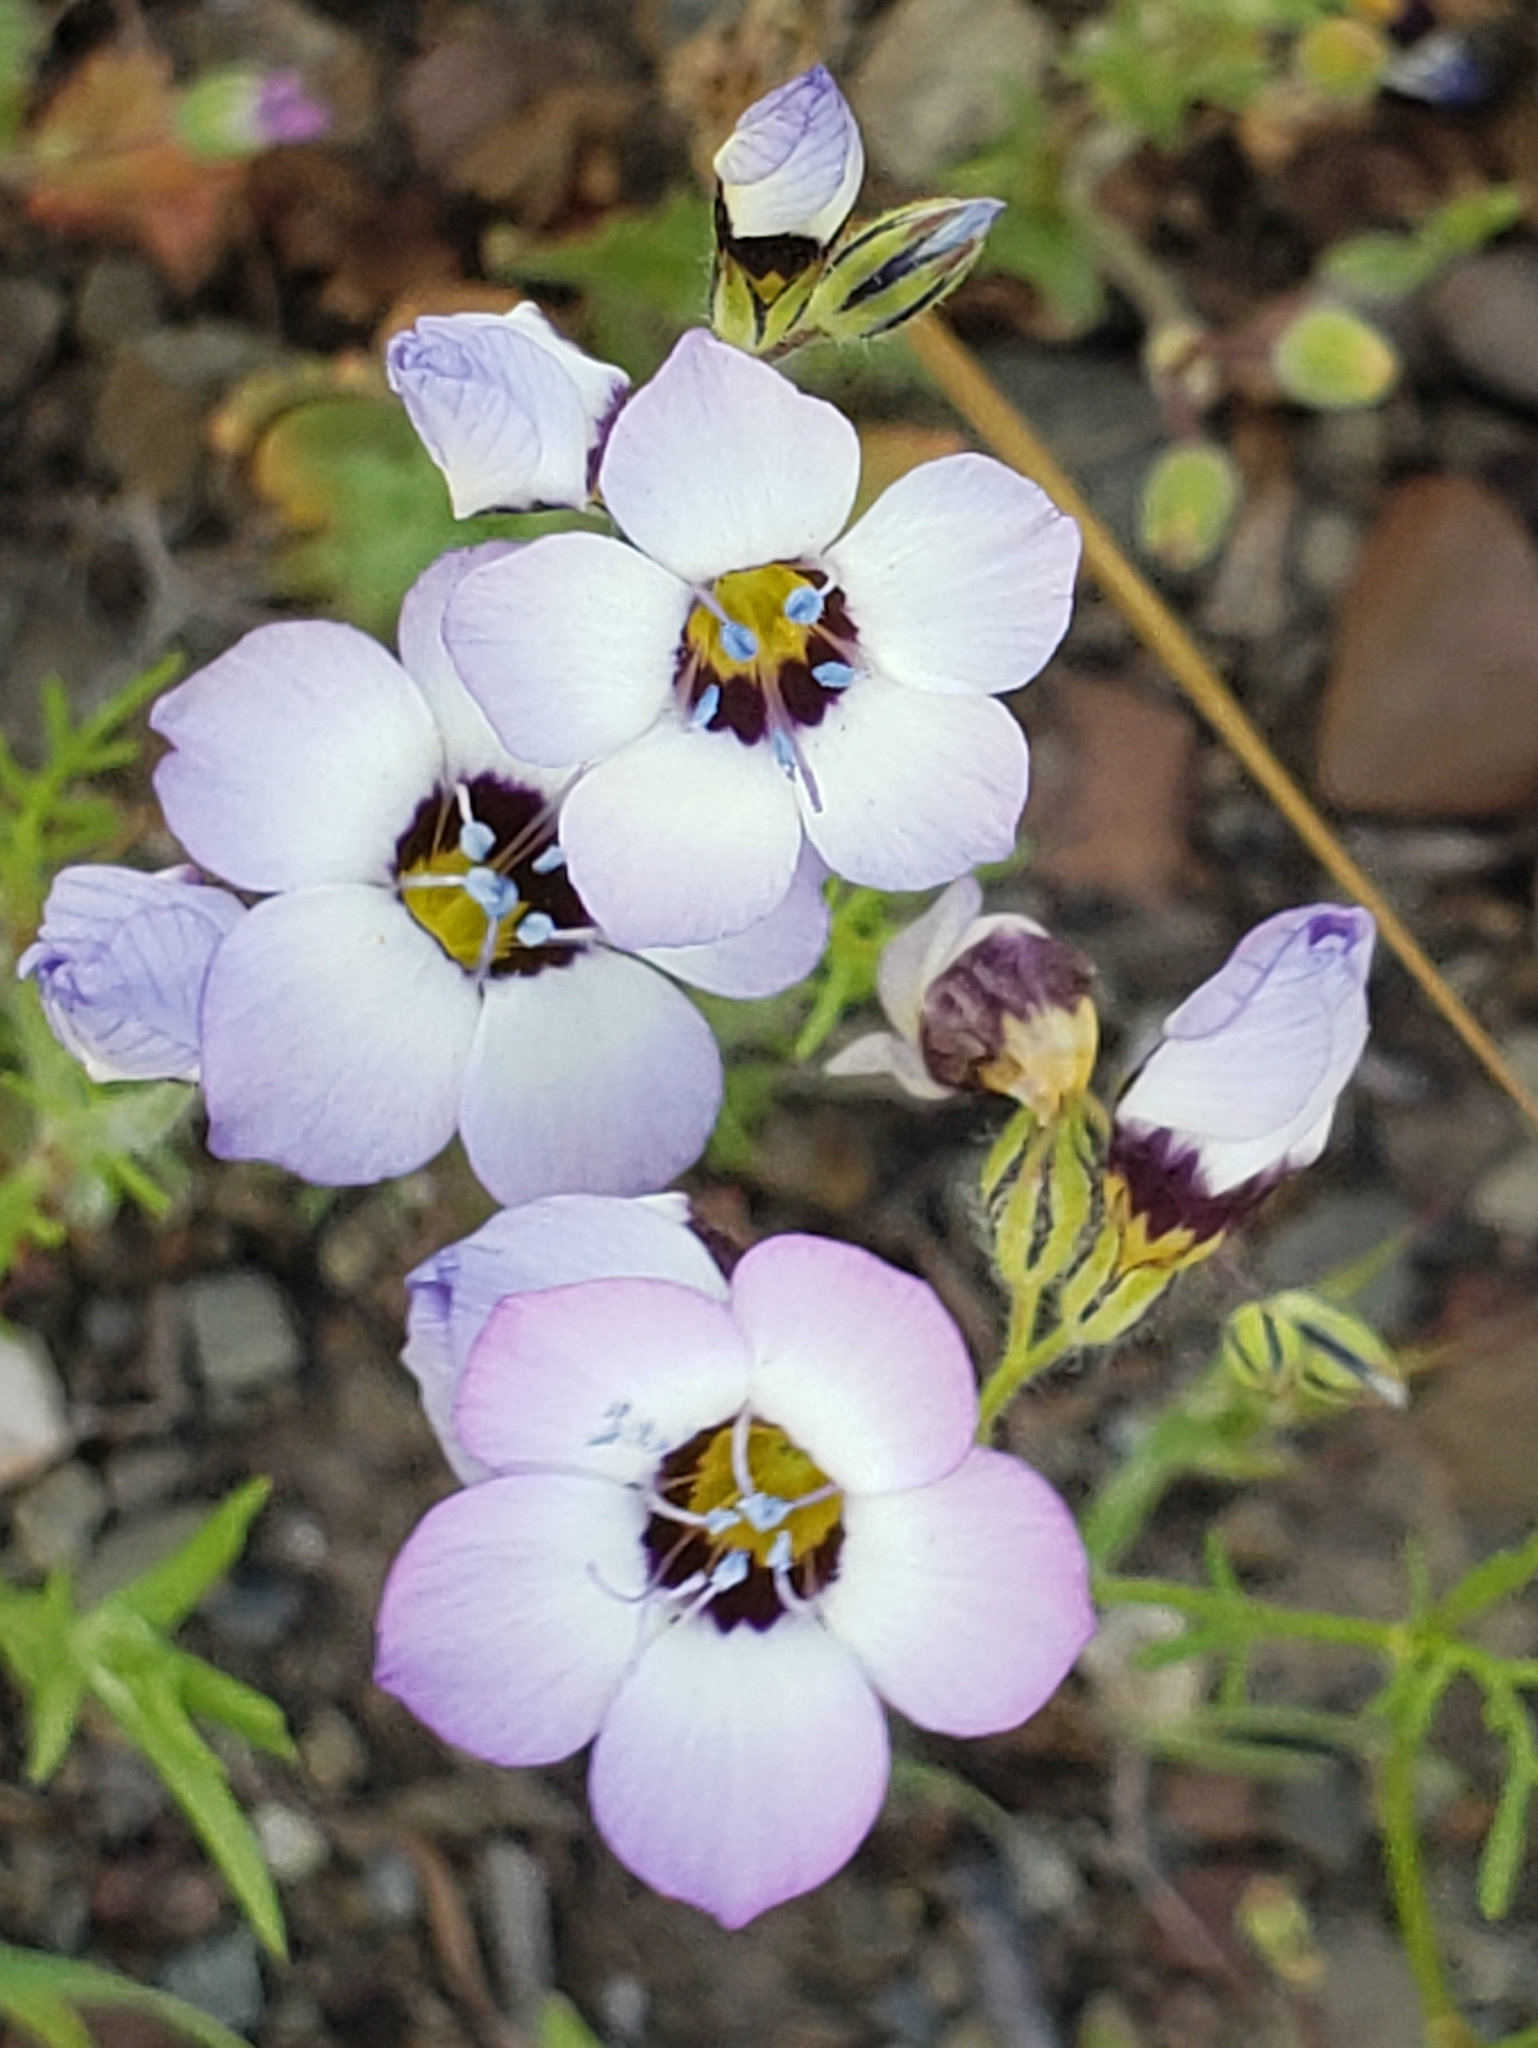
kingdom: Plantae
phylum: Tracheophyta
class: Magnoliopsida
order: Ericales
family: Polemoniaceae
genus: Gilia
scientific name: Gilia tricolor
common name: Bird's-eyes
